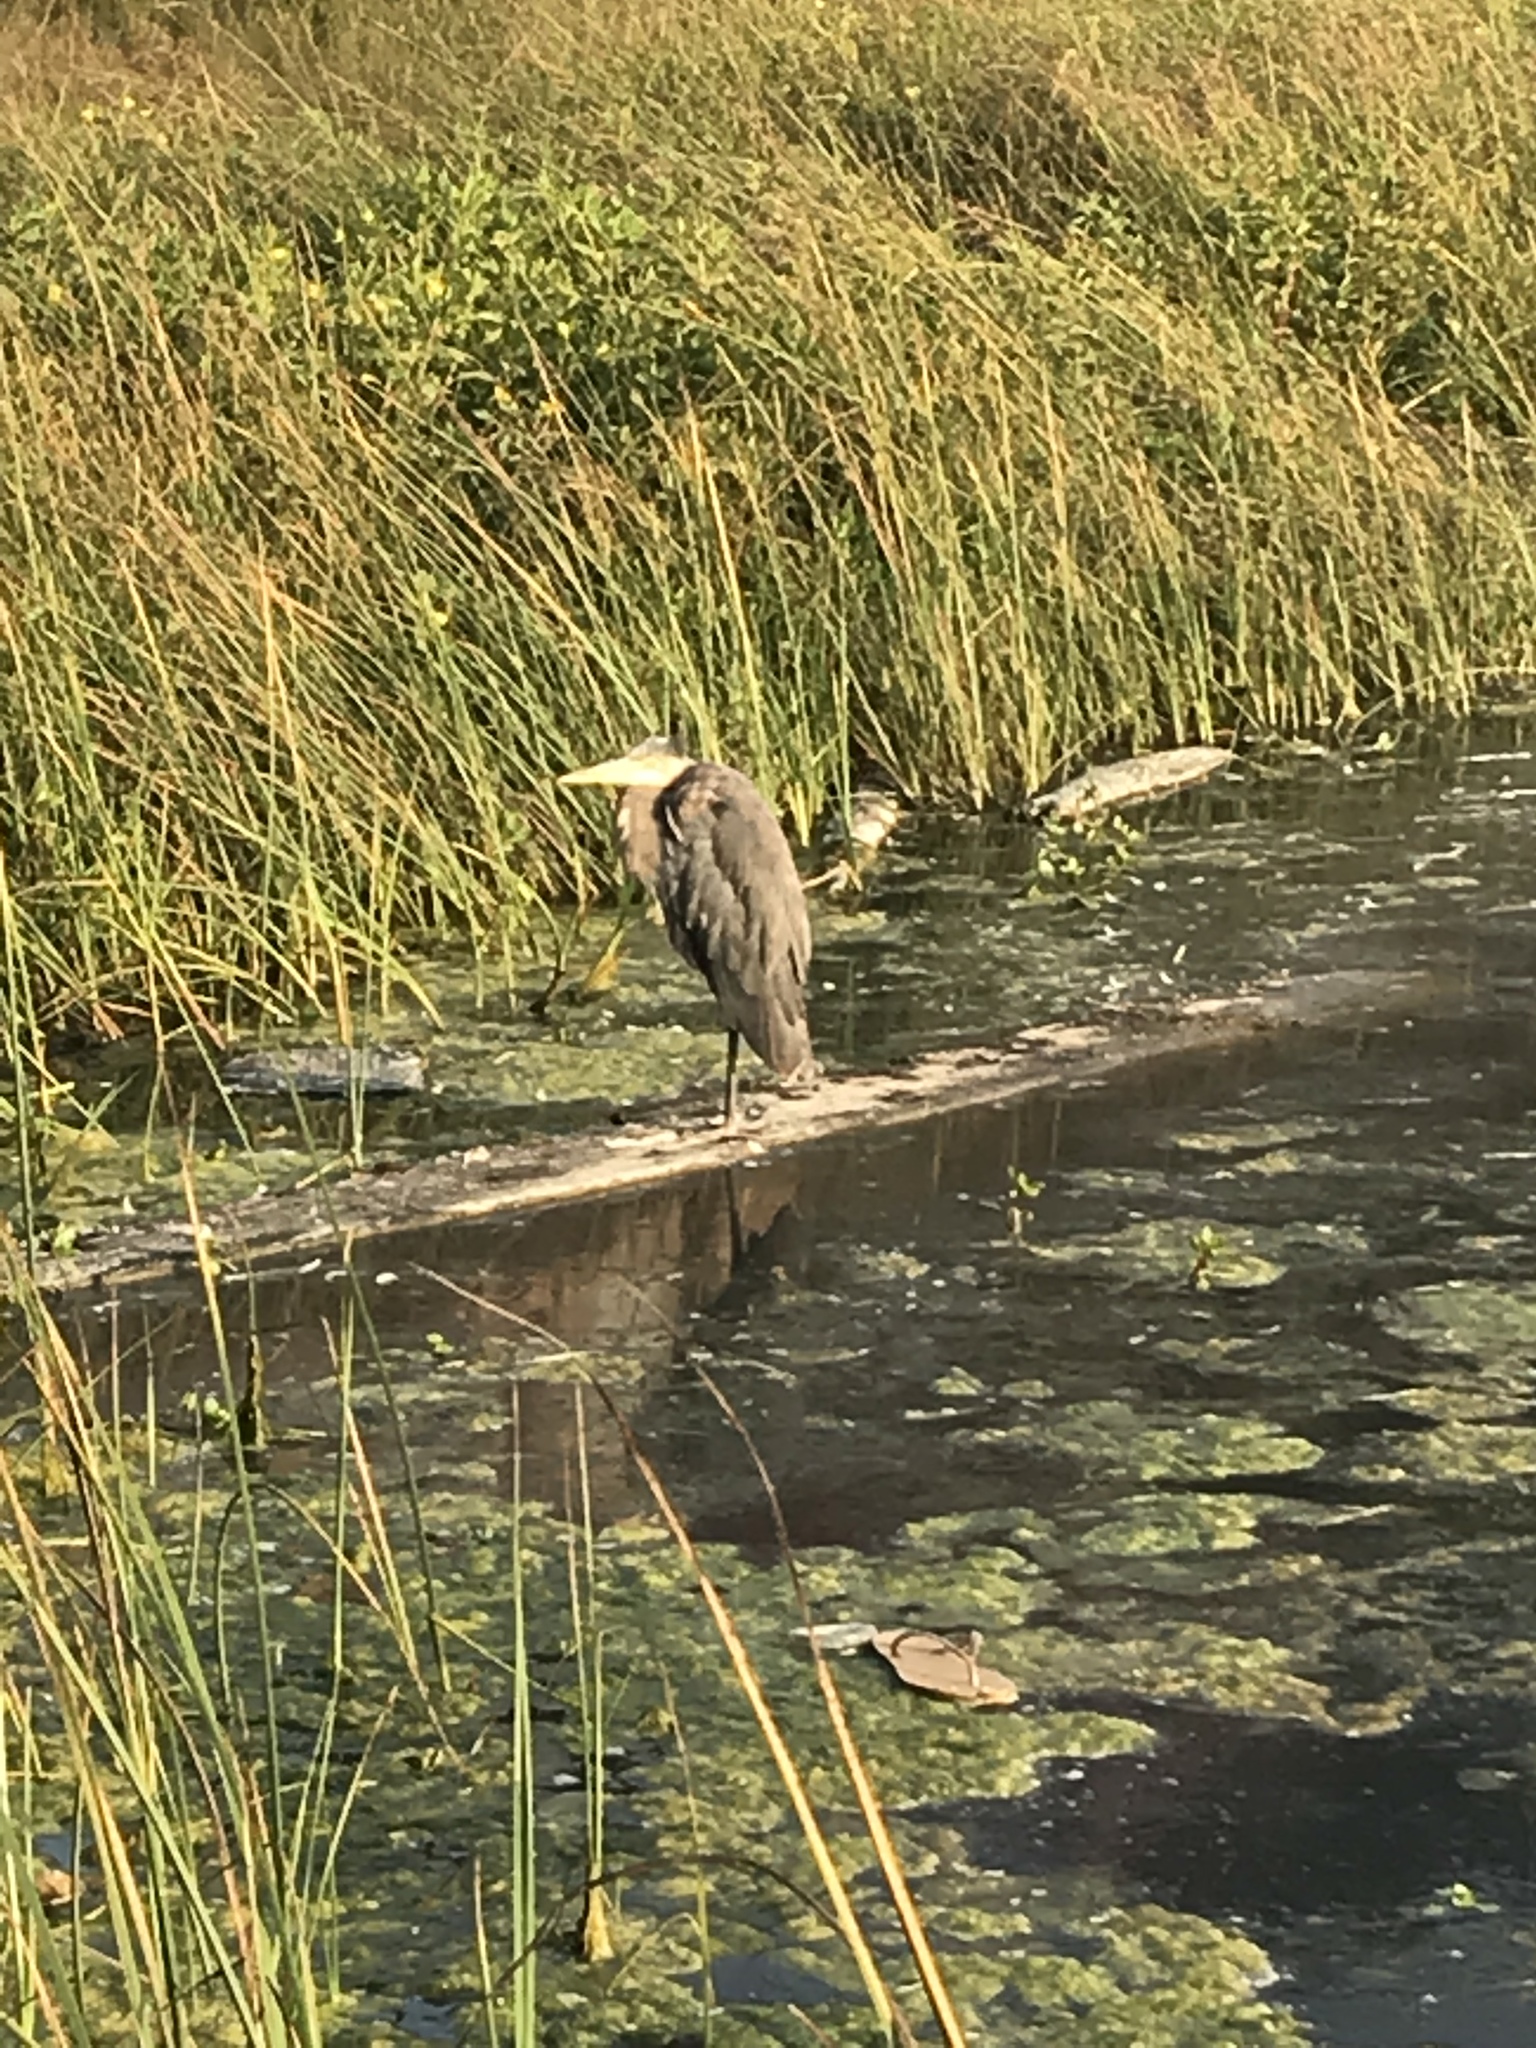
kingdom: Animalia
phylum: Chordata
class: Aves
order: Pelecaniformes
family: Ardeidae
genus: Ardea
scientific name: Ardea herodias
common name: Great blue heron
